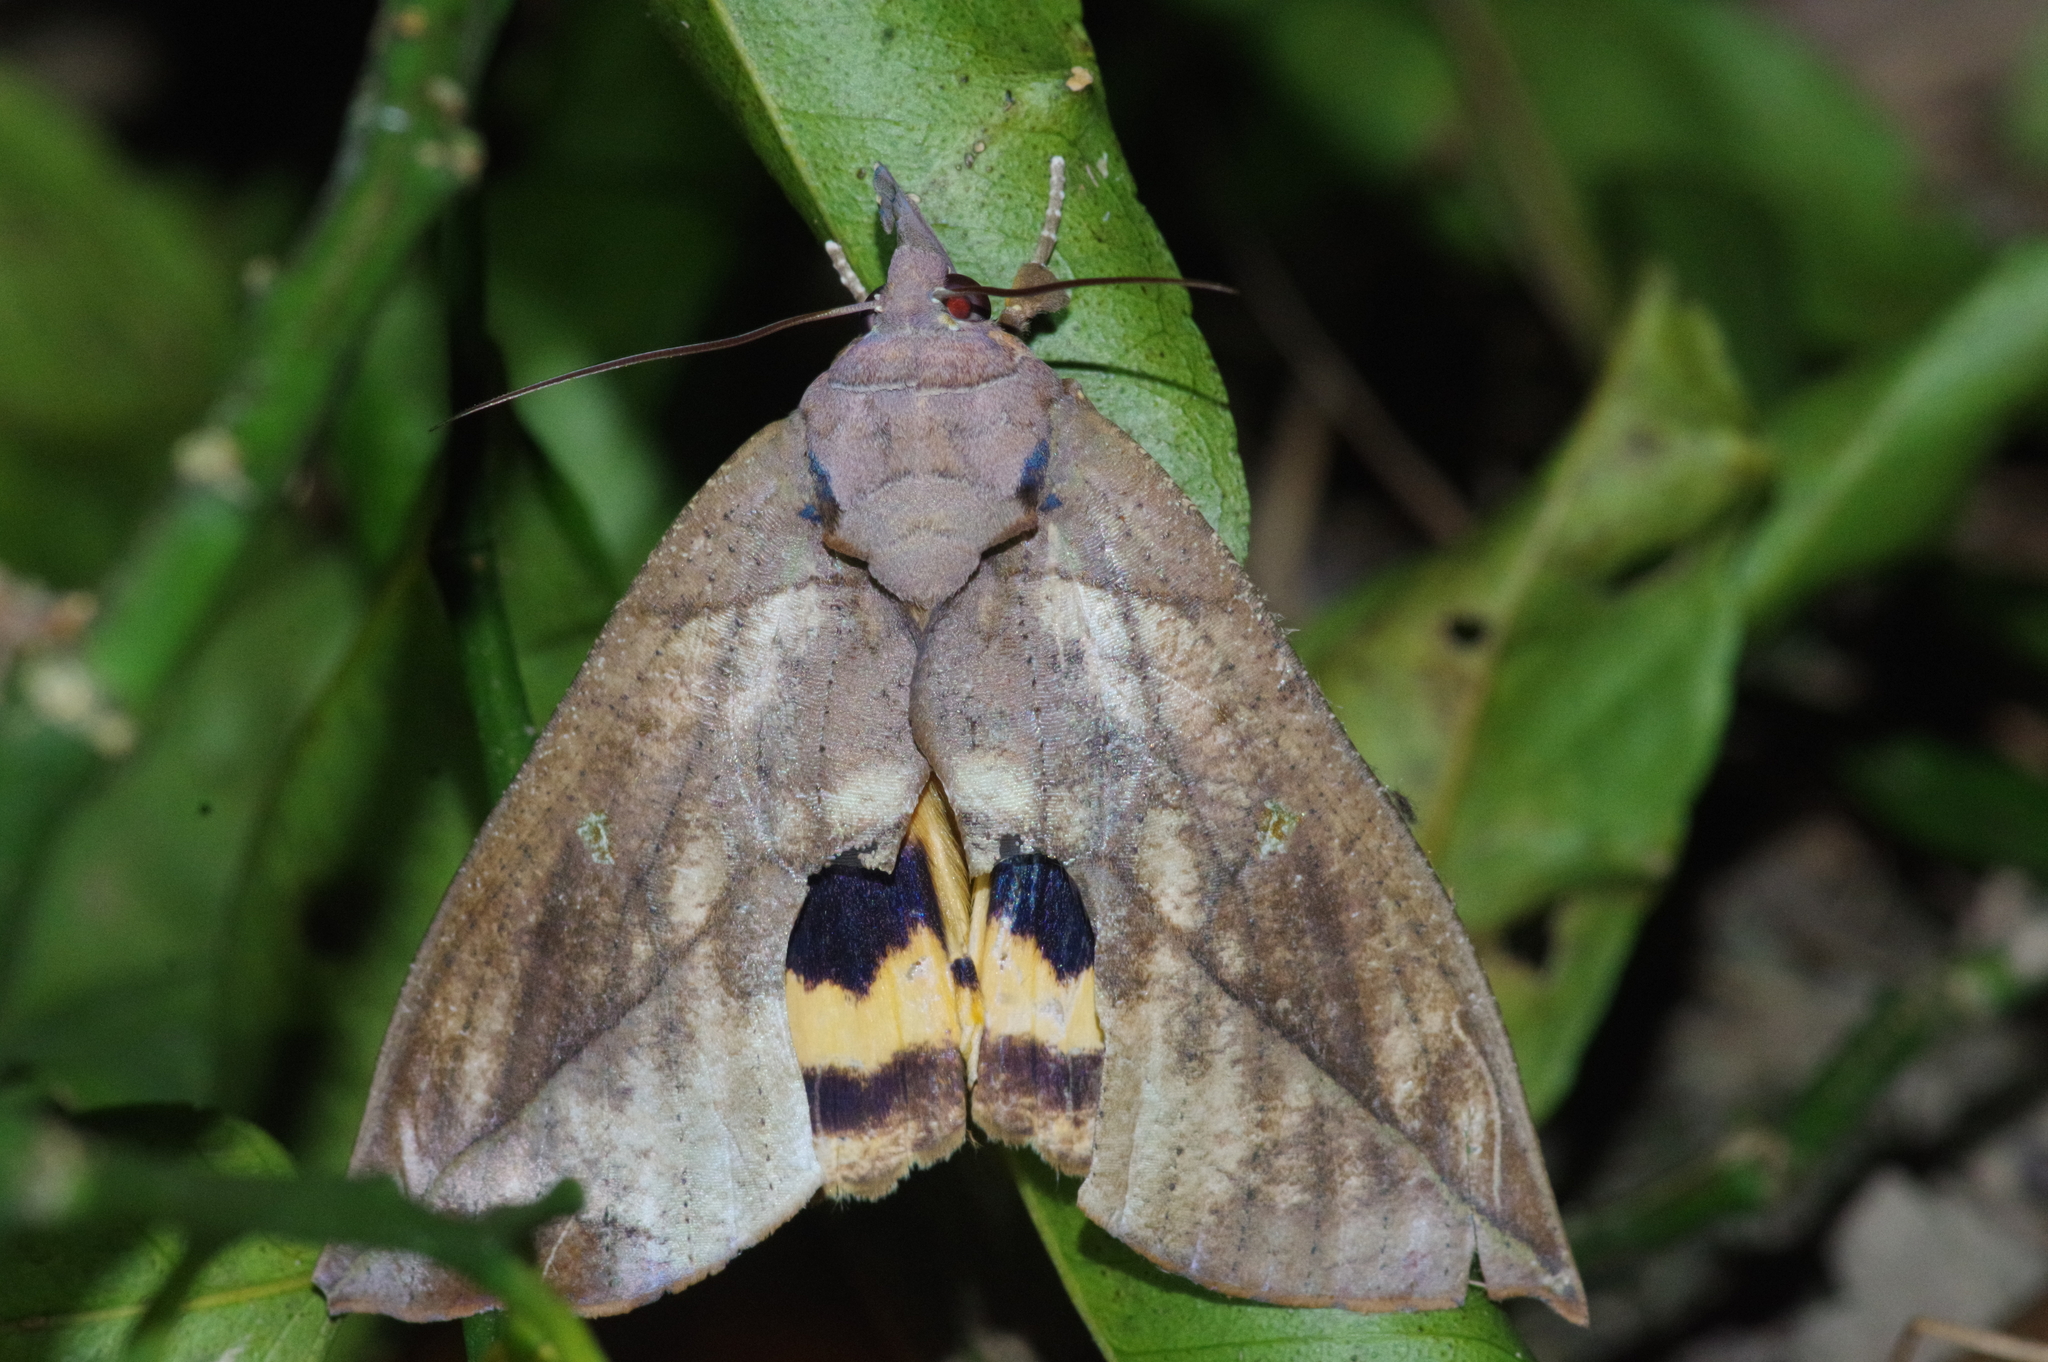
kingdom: Animalia
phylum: Arthropoda
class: Insecta
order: Lepidoptera
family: Erebidae
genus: Eudocima
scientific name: Eudocima tyrannus
